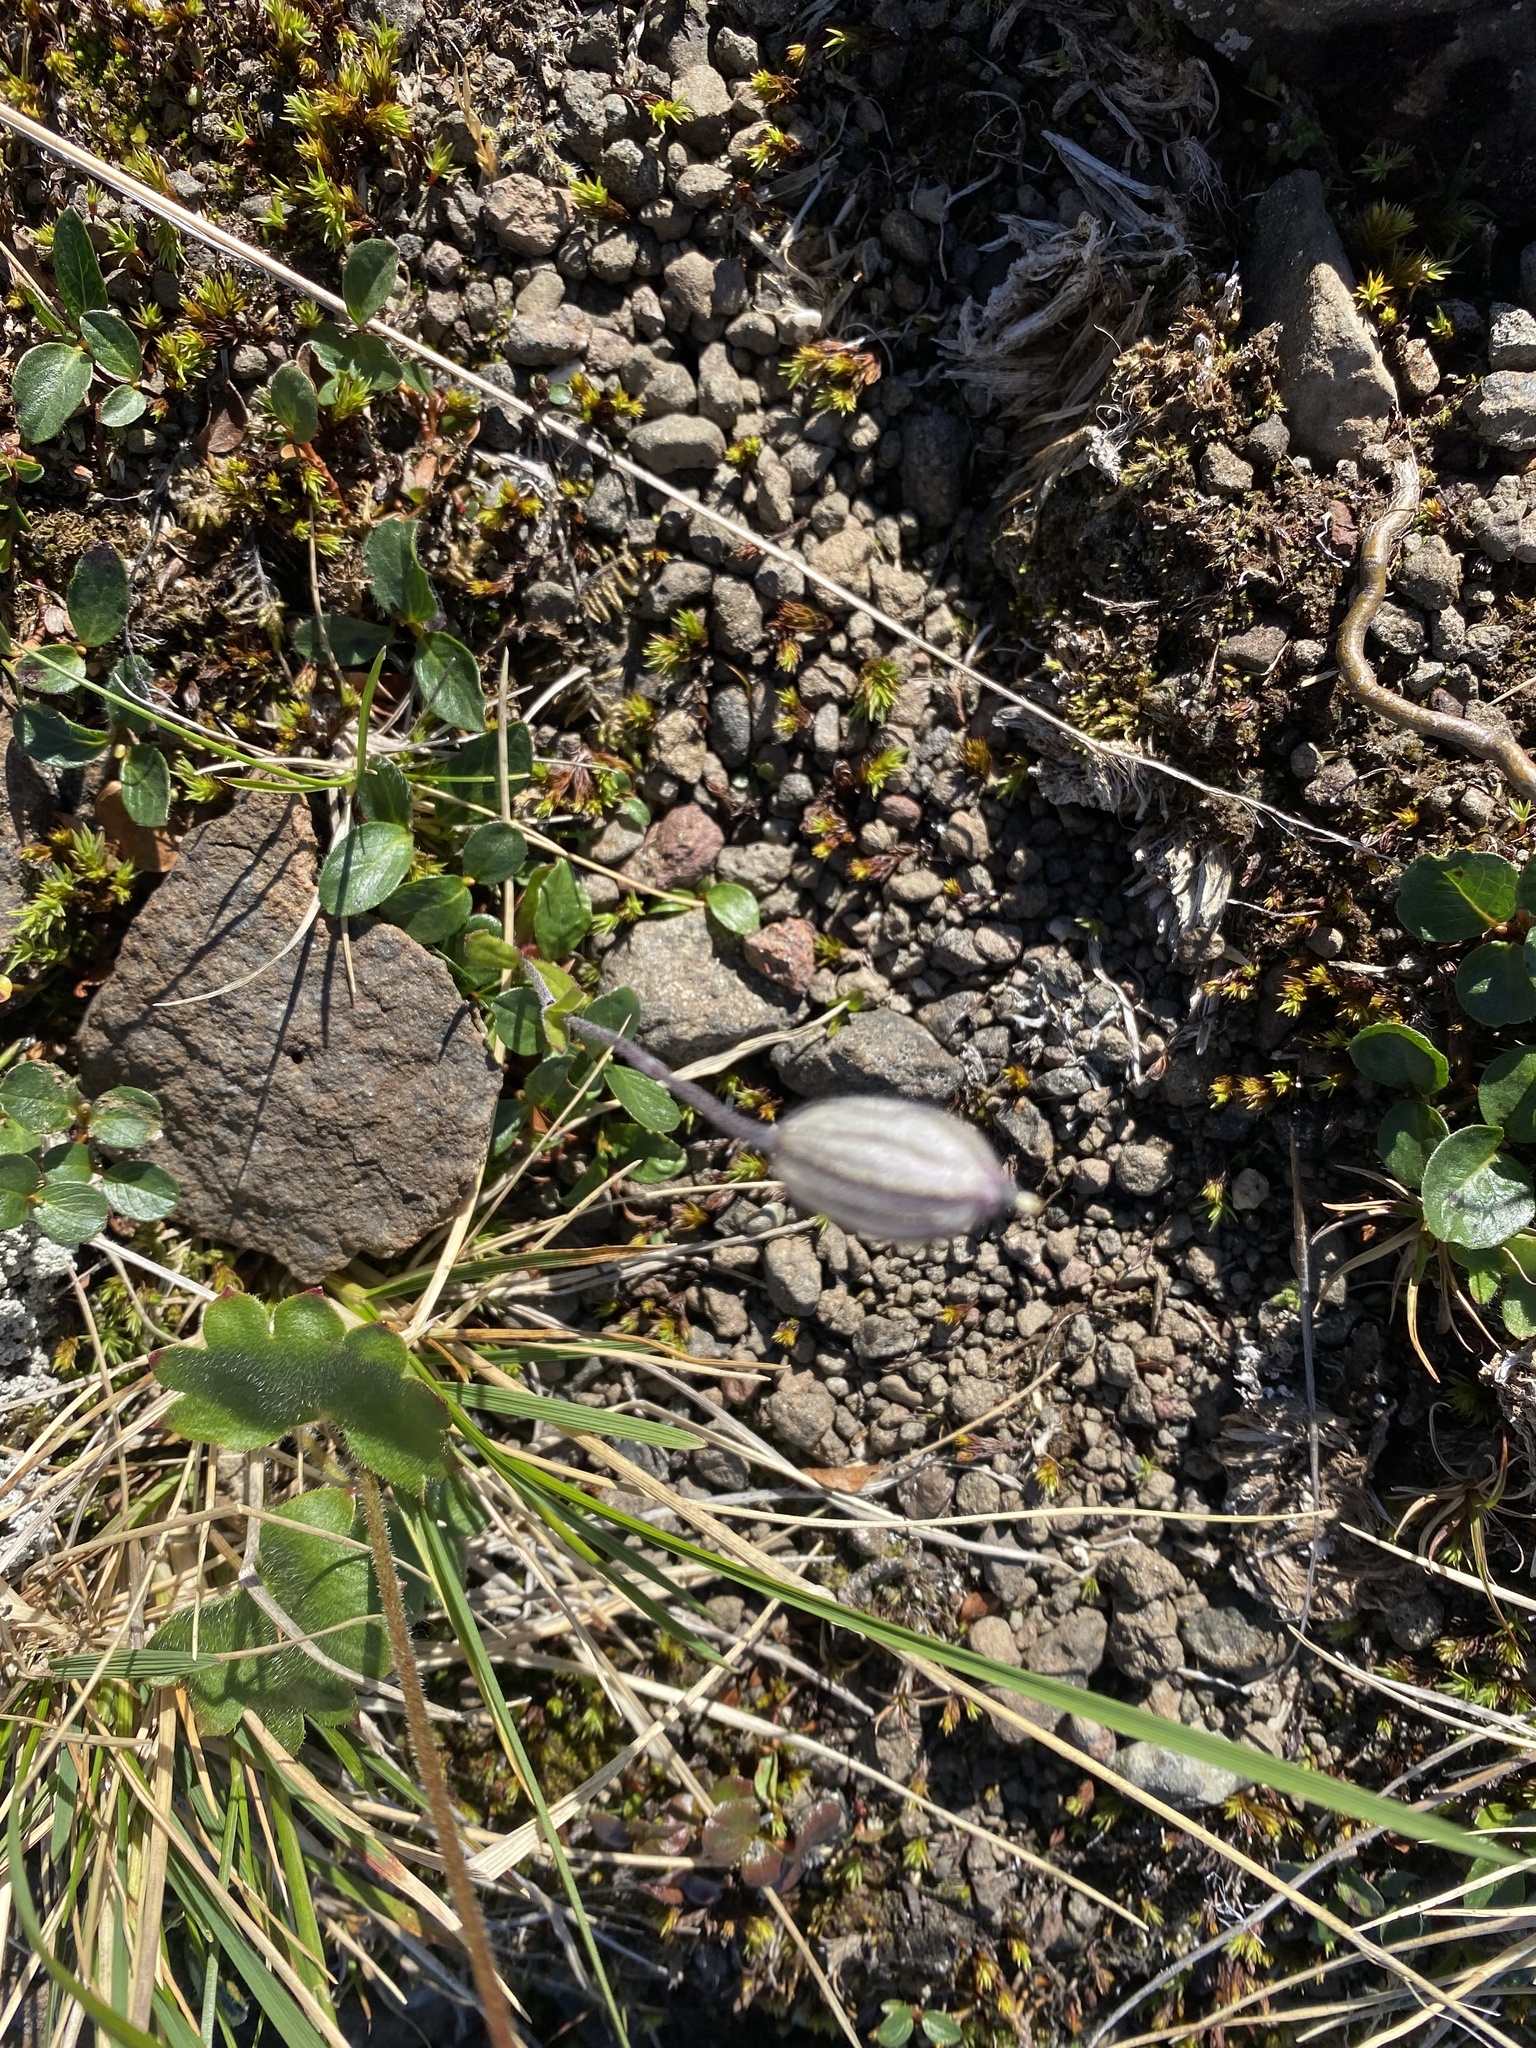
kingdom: Plantae
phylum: Tracheophyta
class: Magnoliopsida
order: Caryophyllales
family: Caryophyllaceae
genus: Silene
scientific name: Silene wahlbergella
